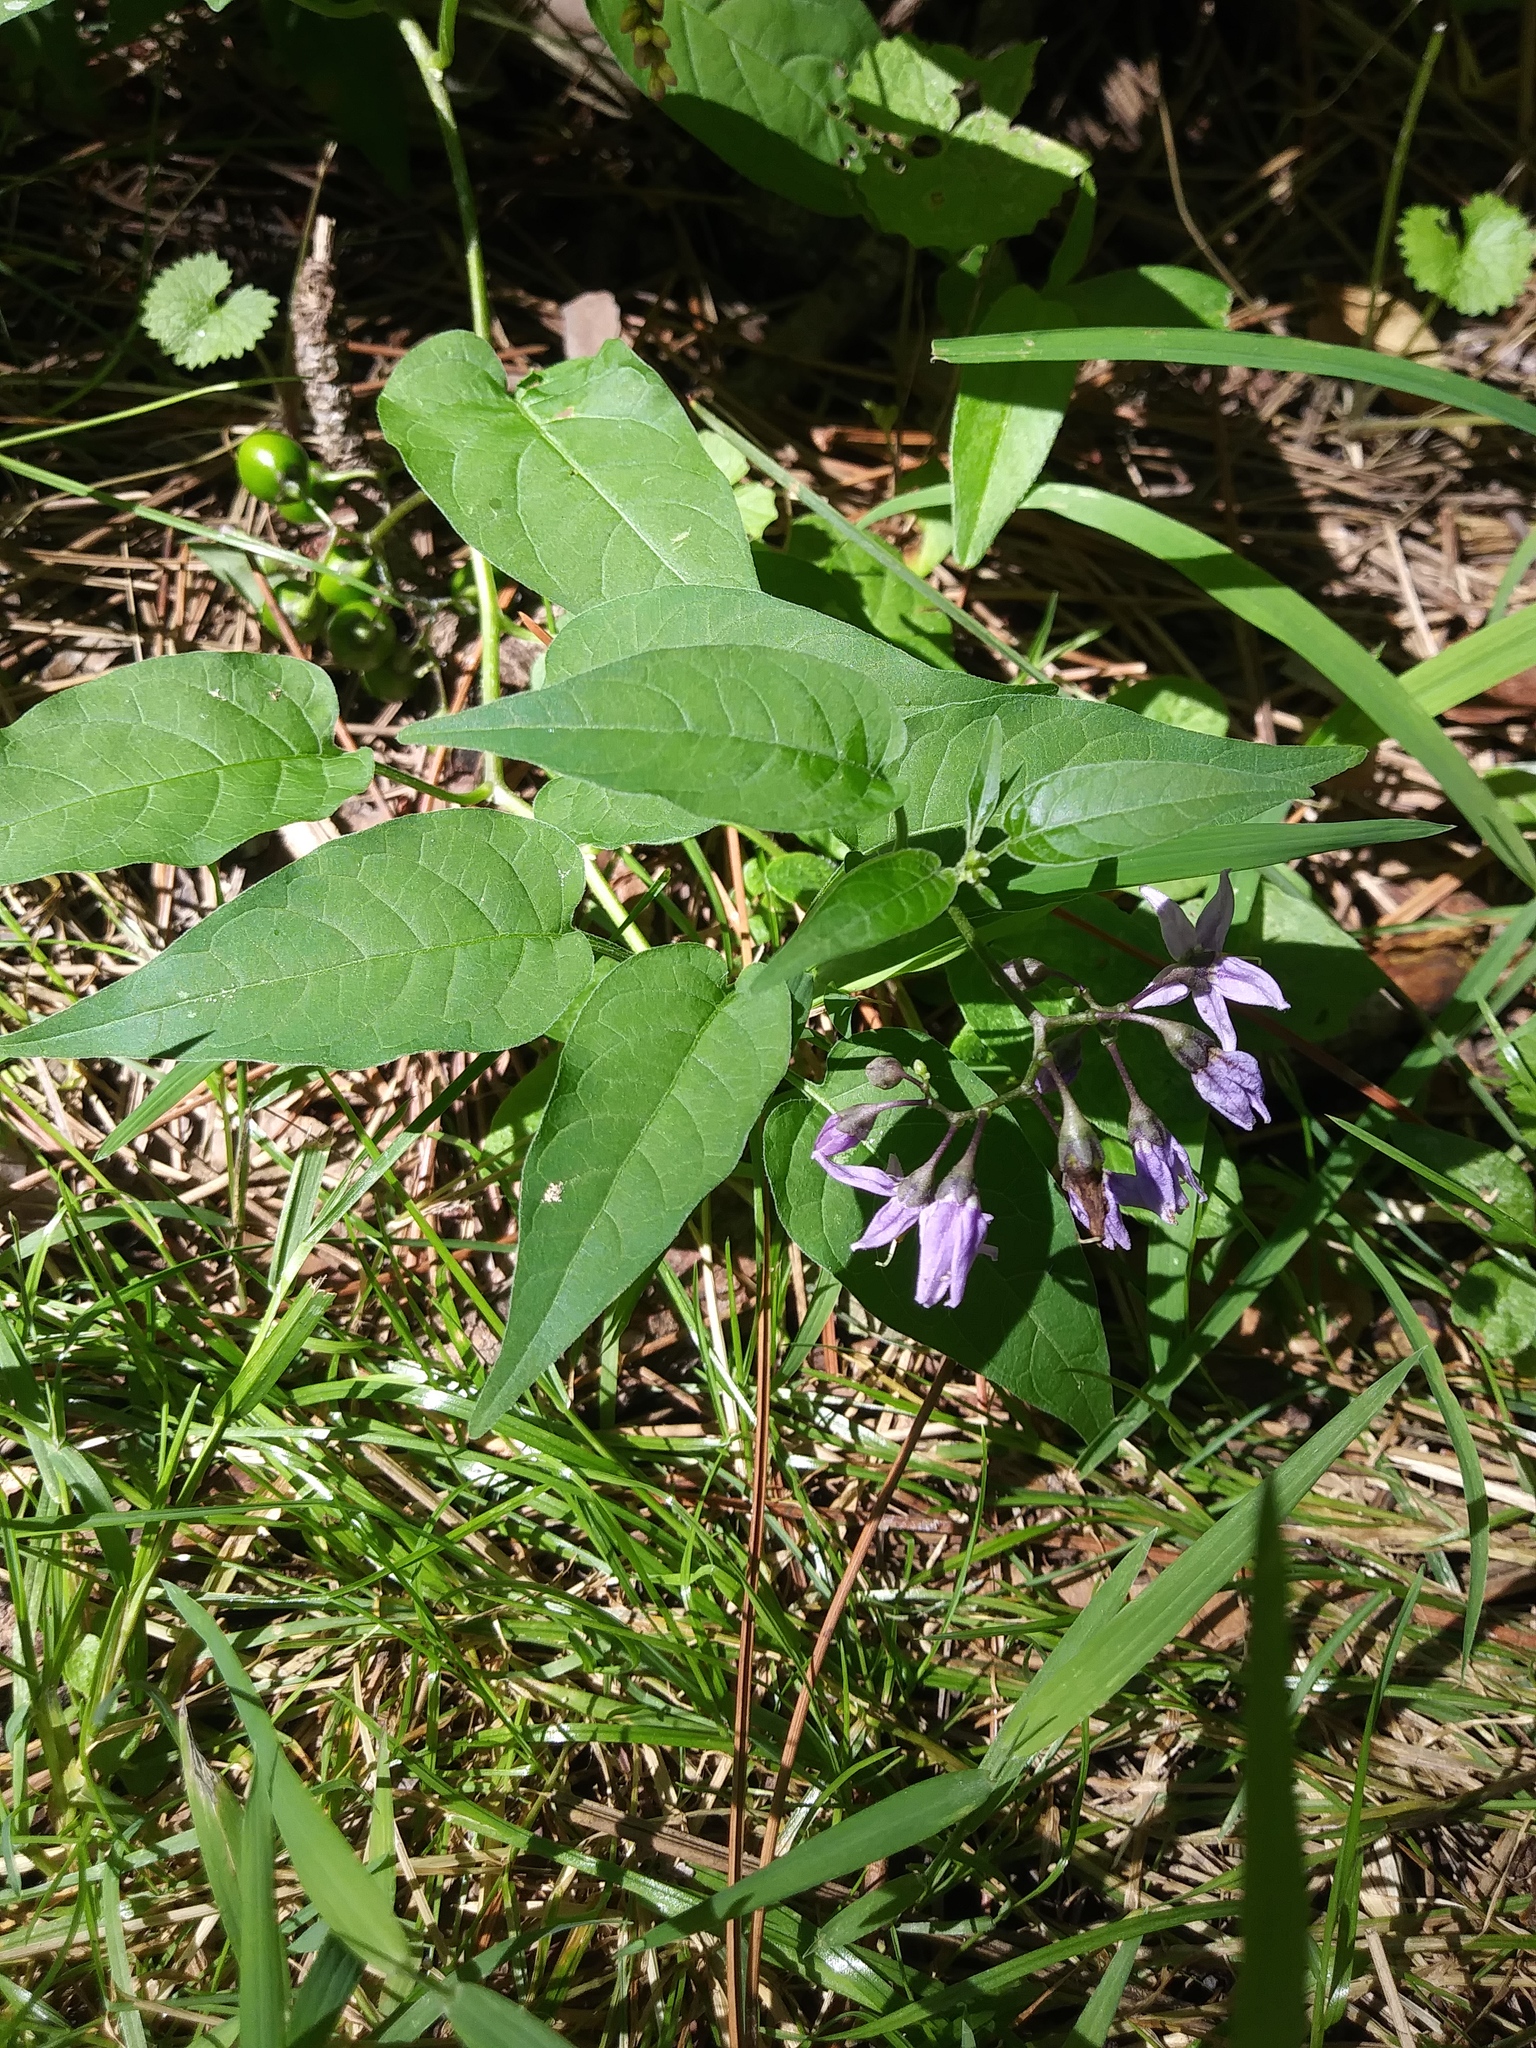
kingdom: Plantae
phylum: Tracheophyta
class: Magnoliopsida
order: Solanales
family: Solanaceae
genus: Solanum
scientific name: Solanum dulcamara
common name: Climbing nightshade
